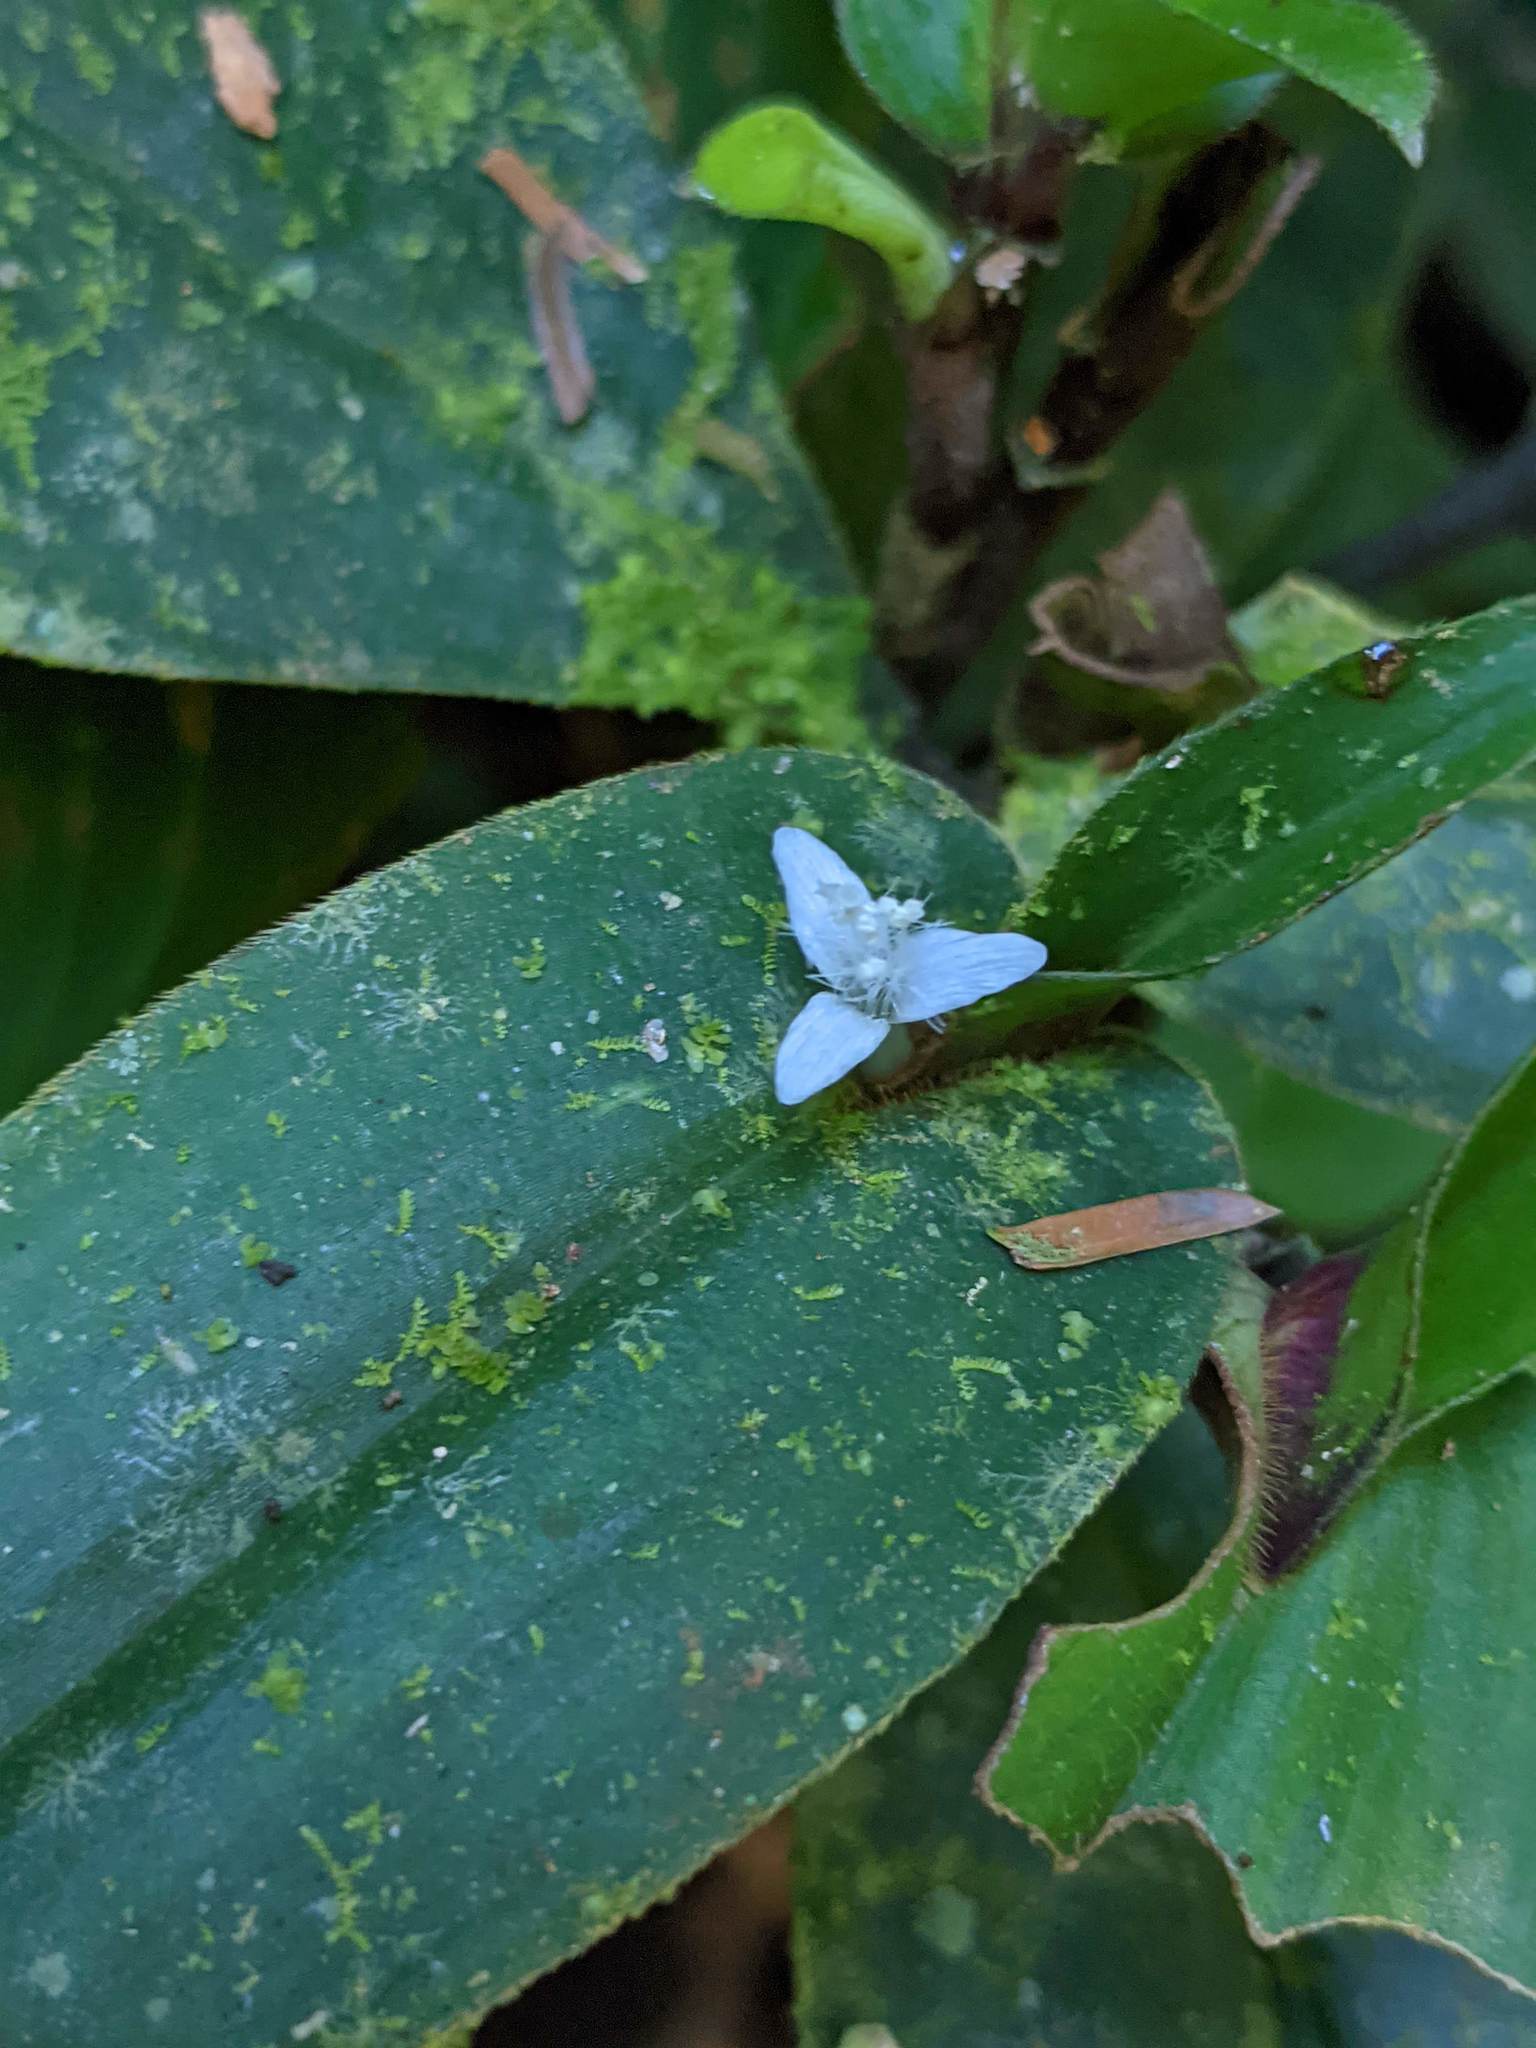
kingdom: Plantae
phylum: Tracheophyta
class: Liliopsida
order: Commelinales
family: Commelinaceae
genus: Tradescantia
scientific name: Tradescantia schippii
